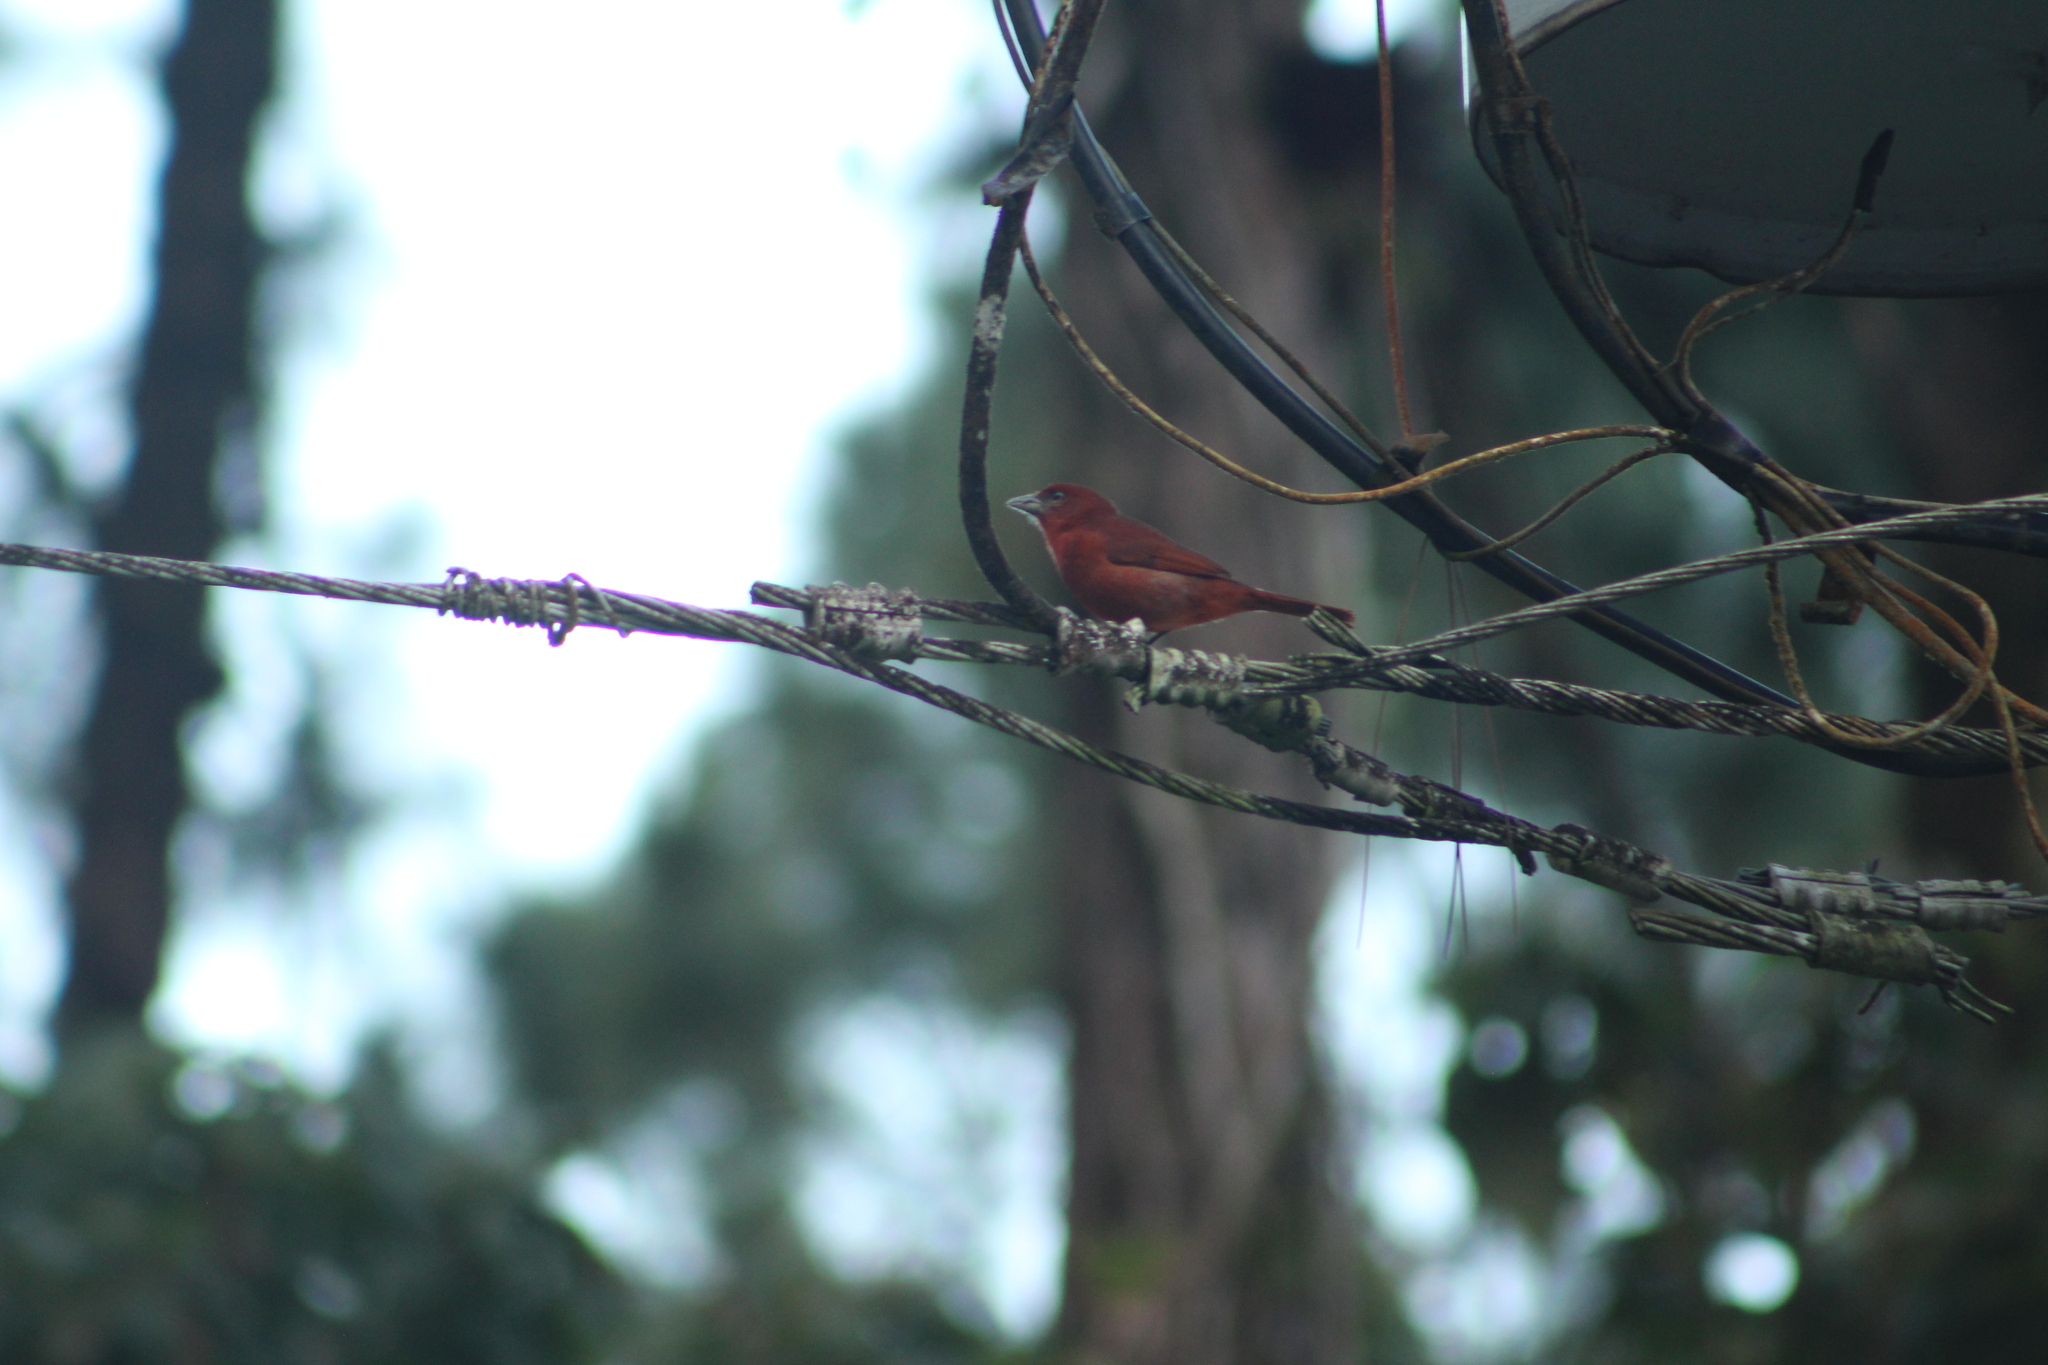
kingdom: Animalia
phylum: Chordata
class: Aves
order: Passeriformes
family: Cardinalidae
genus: Piranga
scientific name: Piranga flava
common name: Red tanager
